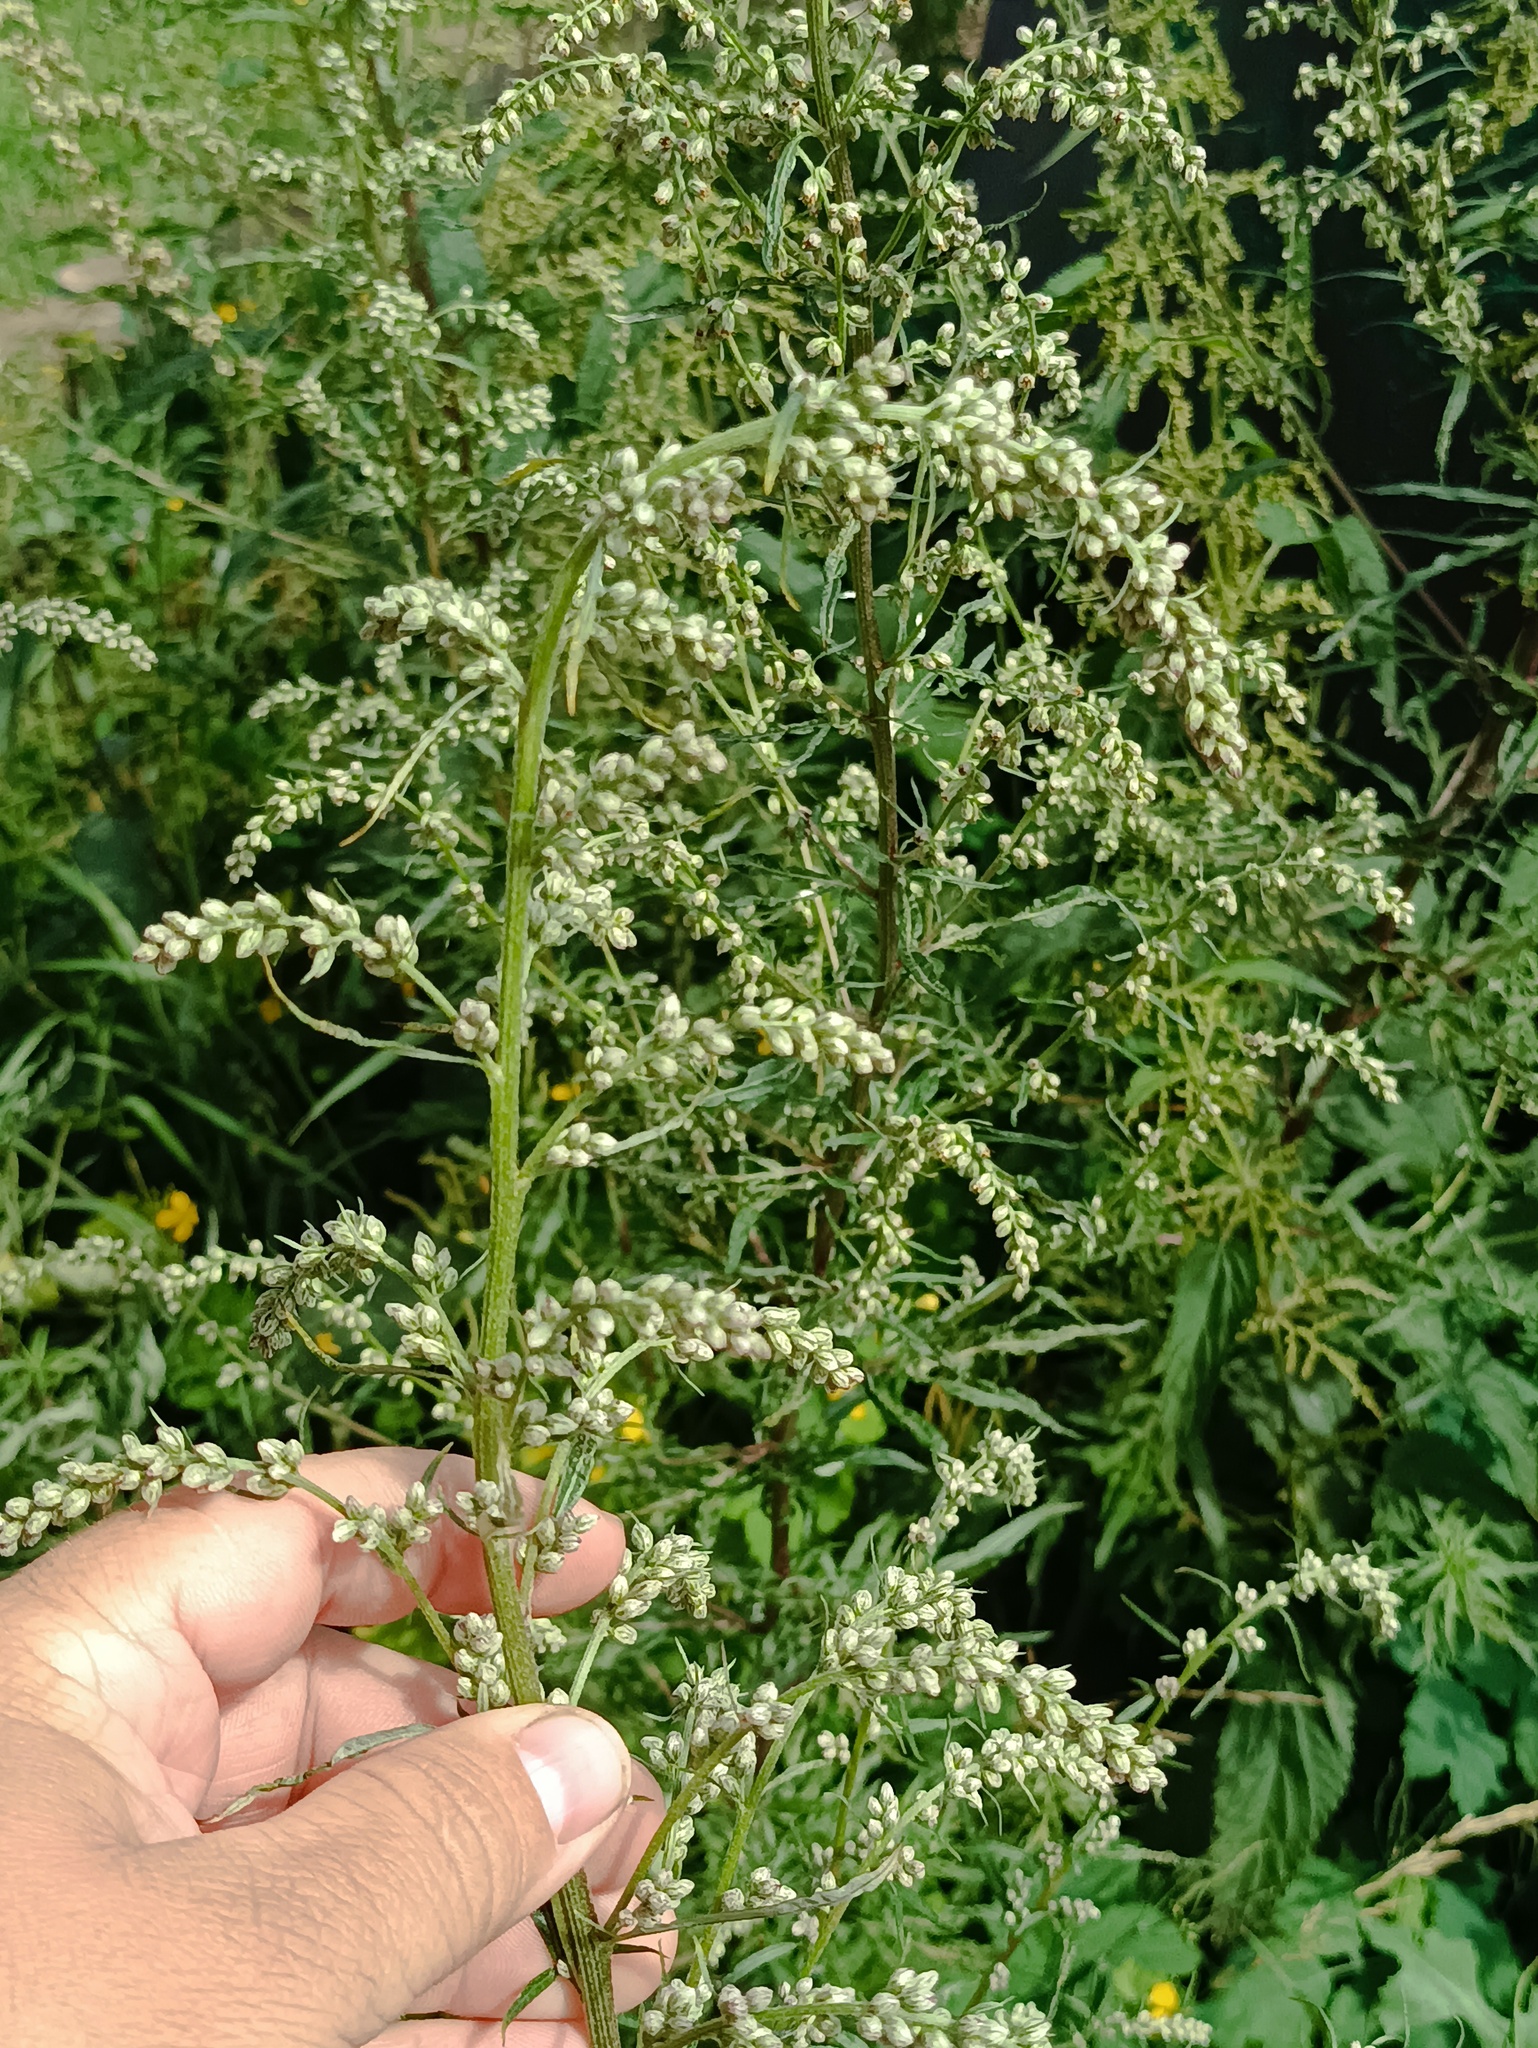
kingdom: Plantae
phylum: Tracheophyta
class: Magnoliopsida
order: Asterales
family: Asteraceae
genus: Artemisia
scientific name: Artemisia vulgaris
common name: Mugwort
